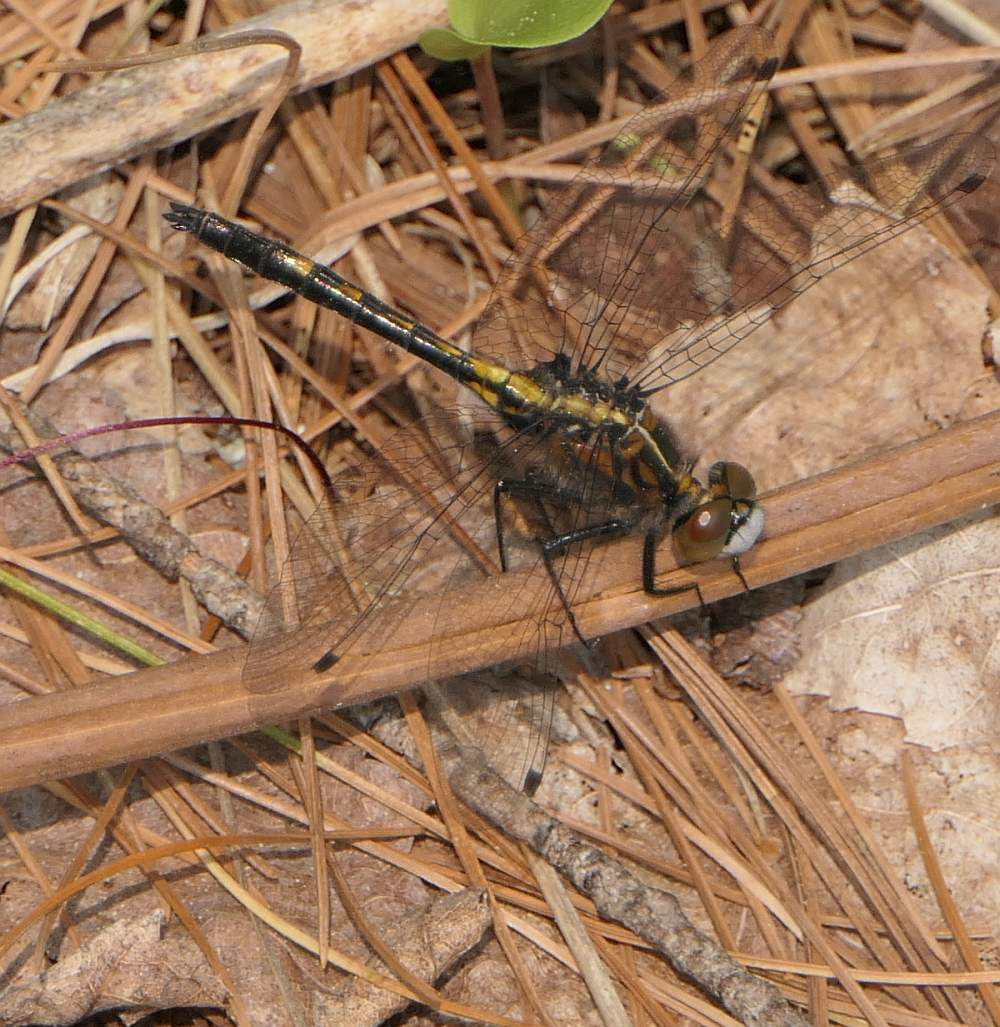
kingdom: Animalia
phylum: Arthropoda
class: Insecta
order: Odonata
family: Libellulidae
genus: Leucorrhinia
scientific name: Leucorrhinia intacta
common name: Dot-tailed whiteface
